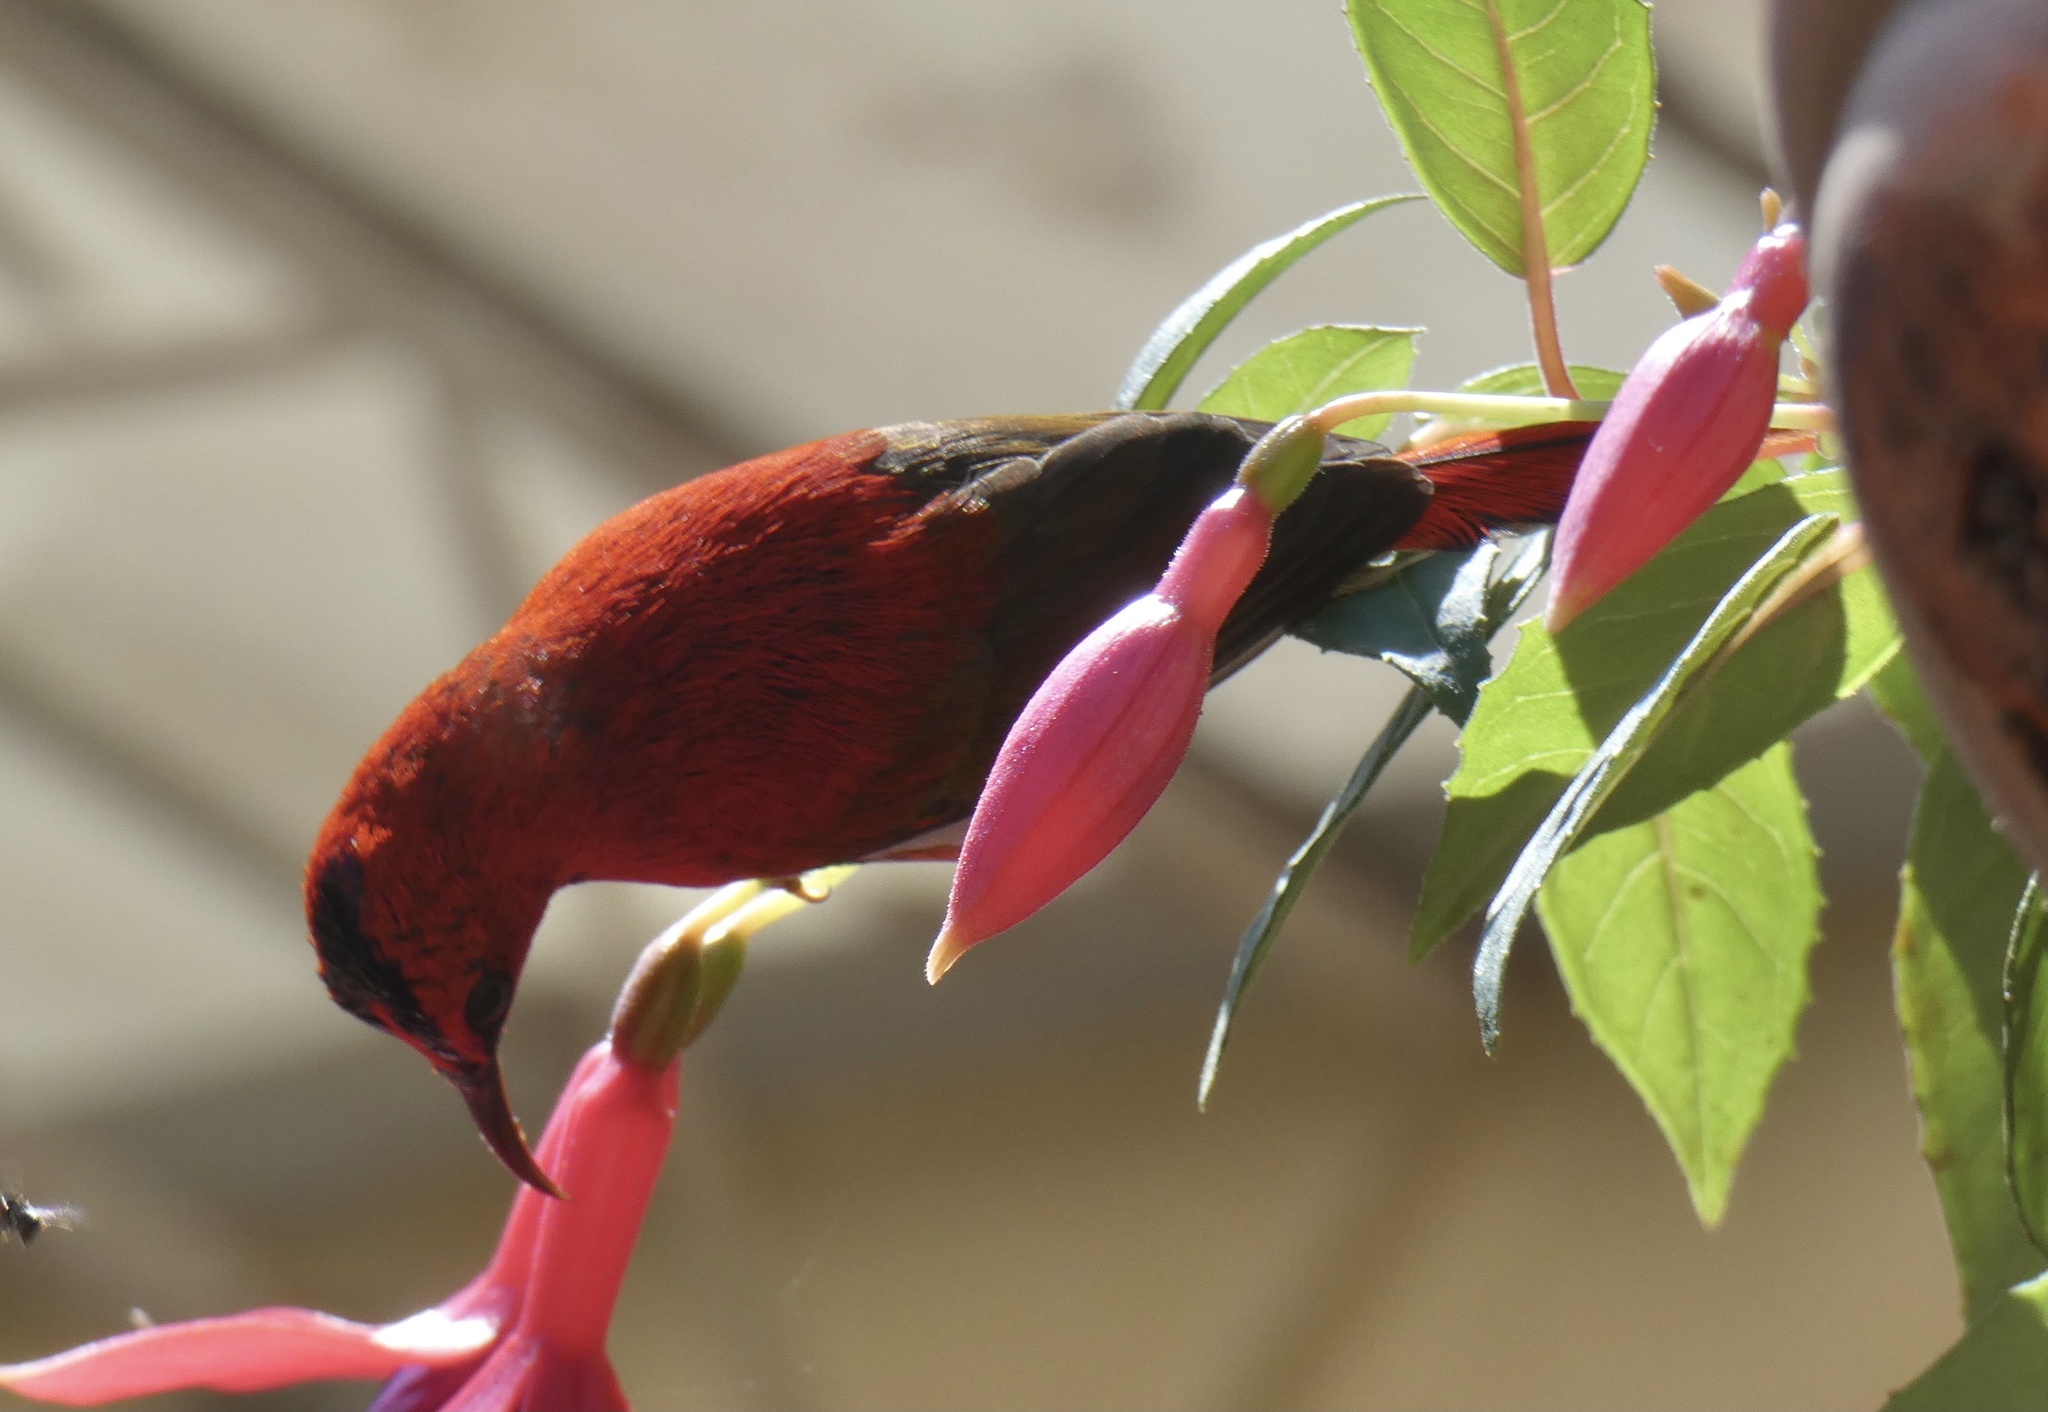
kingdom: Animalia
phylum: Chordata
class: Aves
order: Passeriformes
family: Nectariniidae
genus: Aethopyga
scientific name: Aethopyga temminckii
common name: Temminck's sunbird
